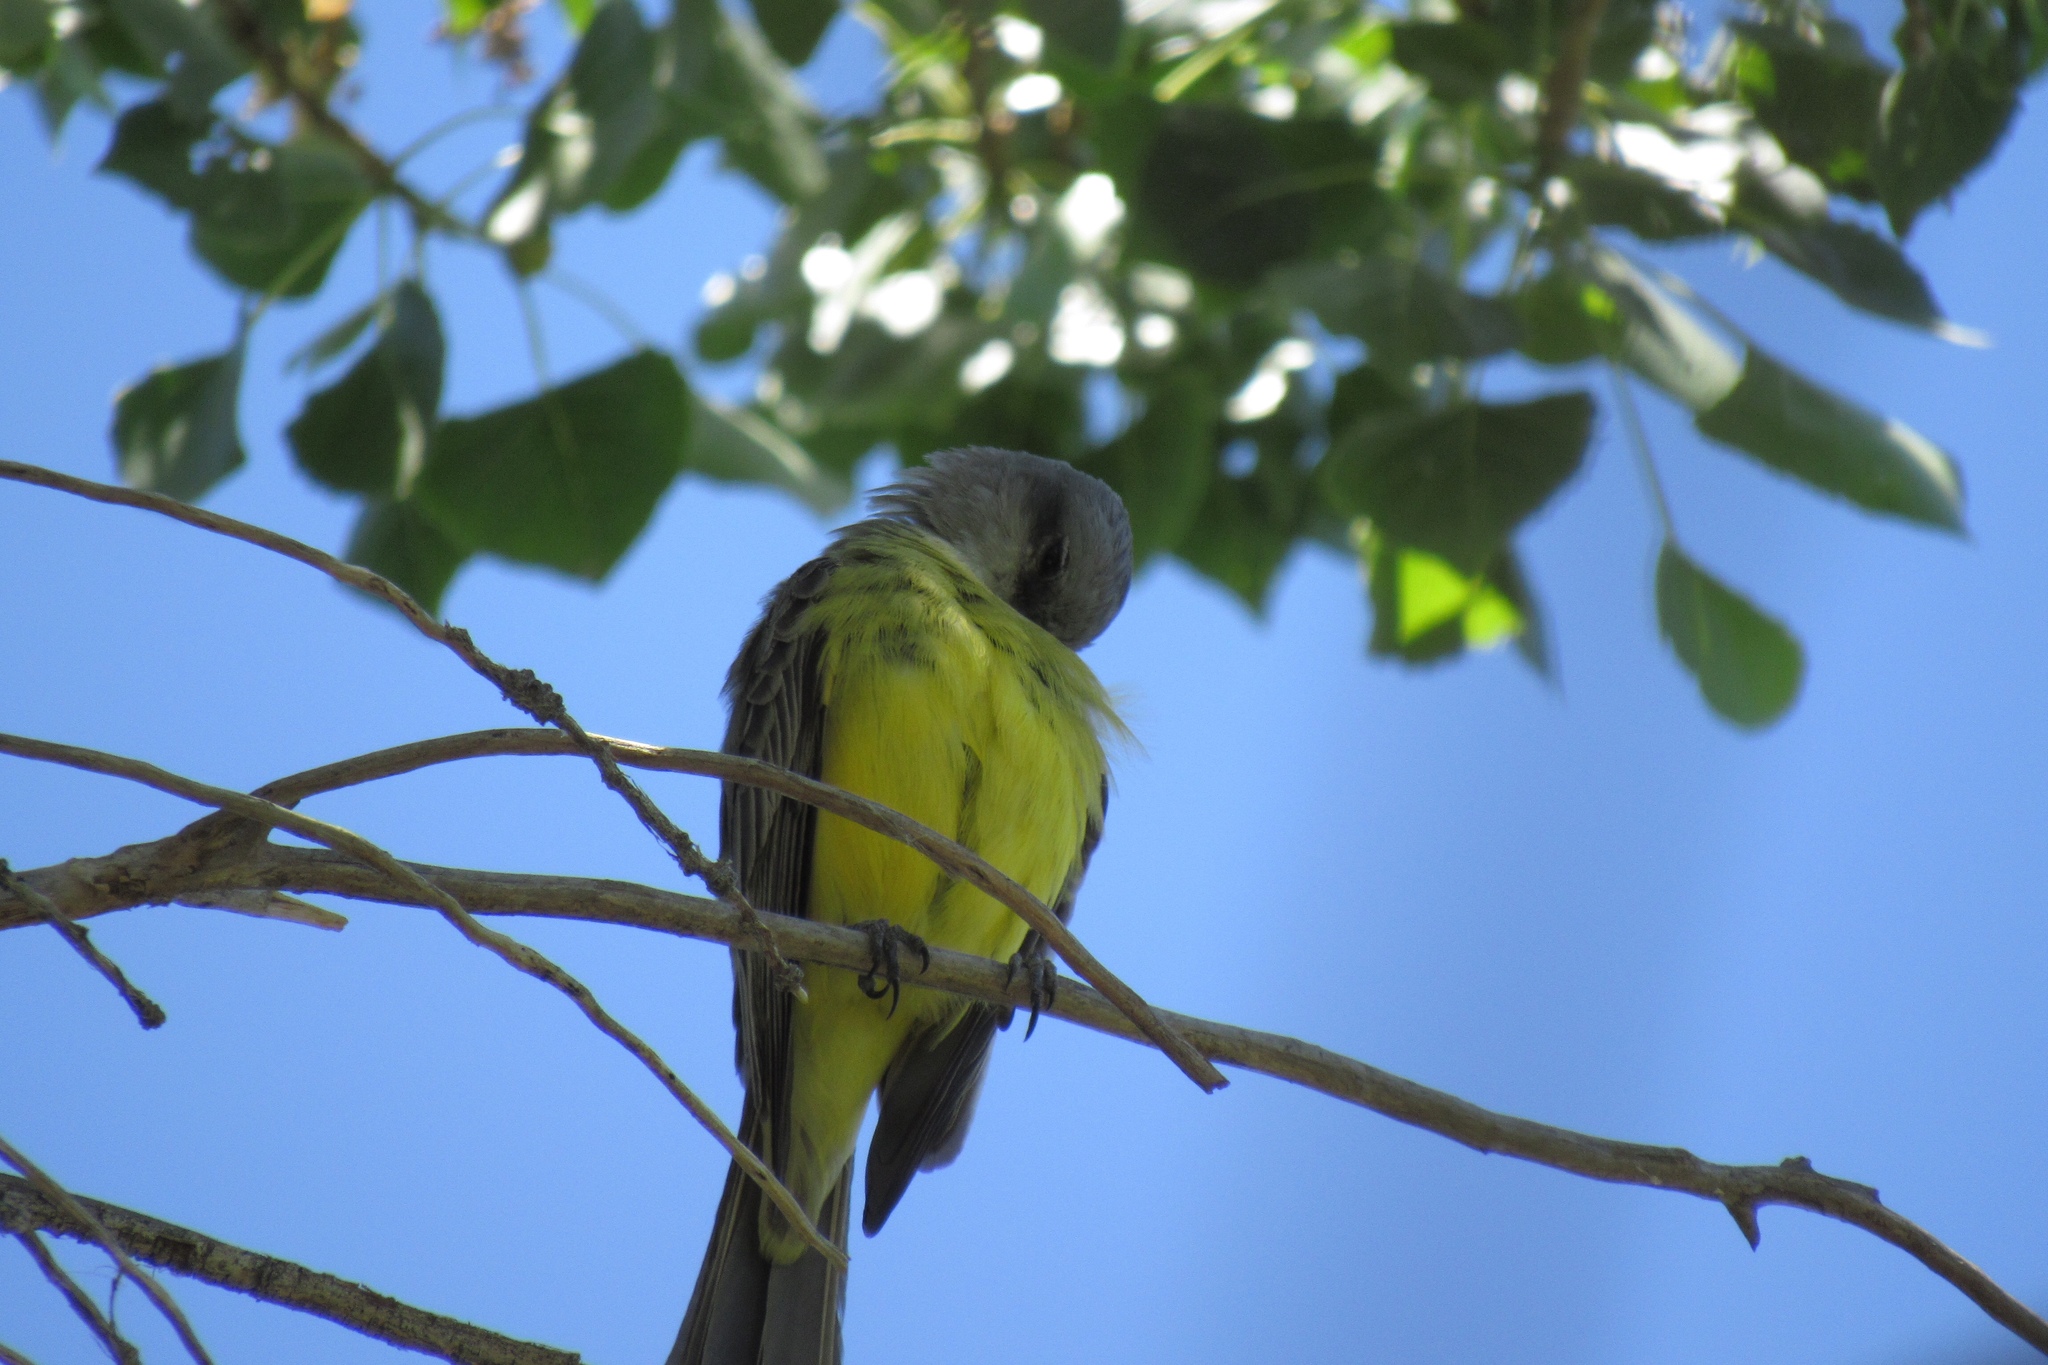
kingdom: Animalia
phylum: Chordata
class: Aves
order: Passeriformes
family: Tyrannidae
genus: Tyrannus
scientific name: Tyrannus melancholicus
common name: Tropical kingbird
